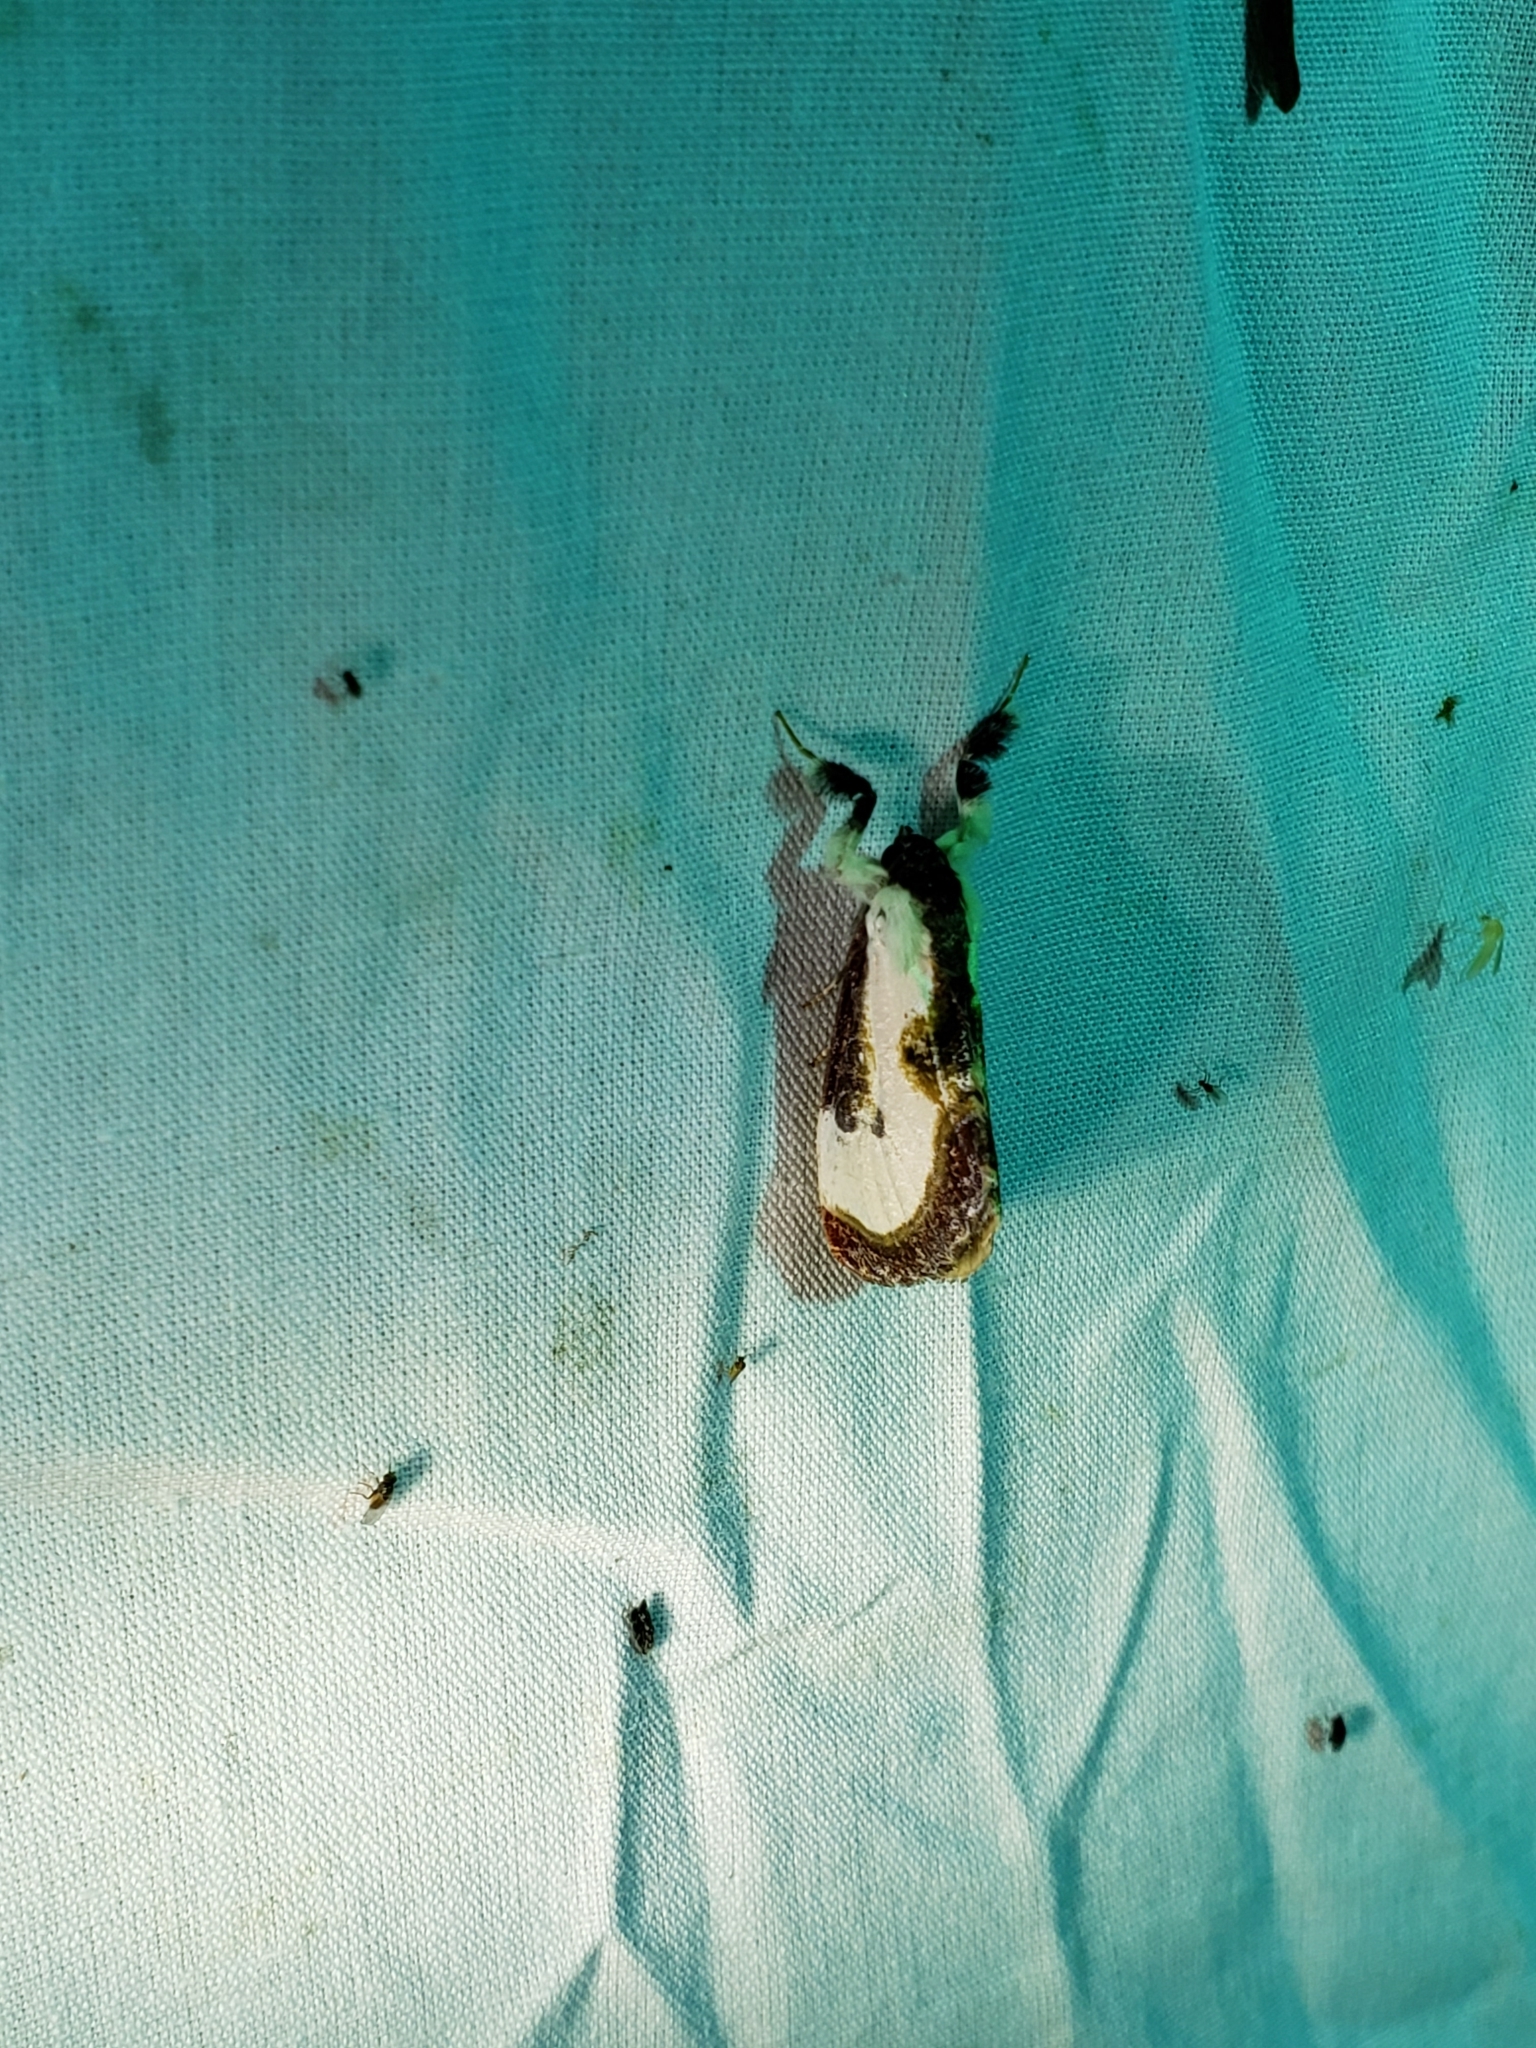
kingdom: Animalia
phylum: Arthropoda
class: Insecta
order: Lepidoptera
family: Noctuidae
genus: Eudryas
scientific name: Eudryas grata
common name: Beautiful wood-nymph
